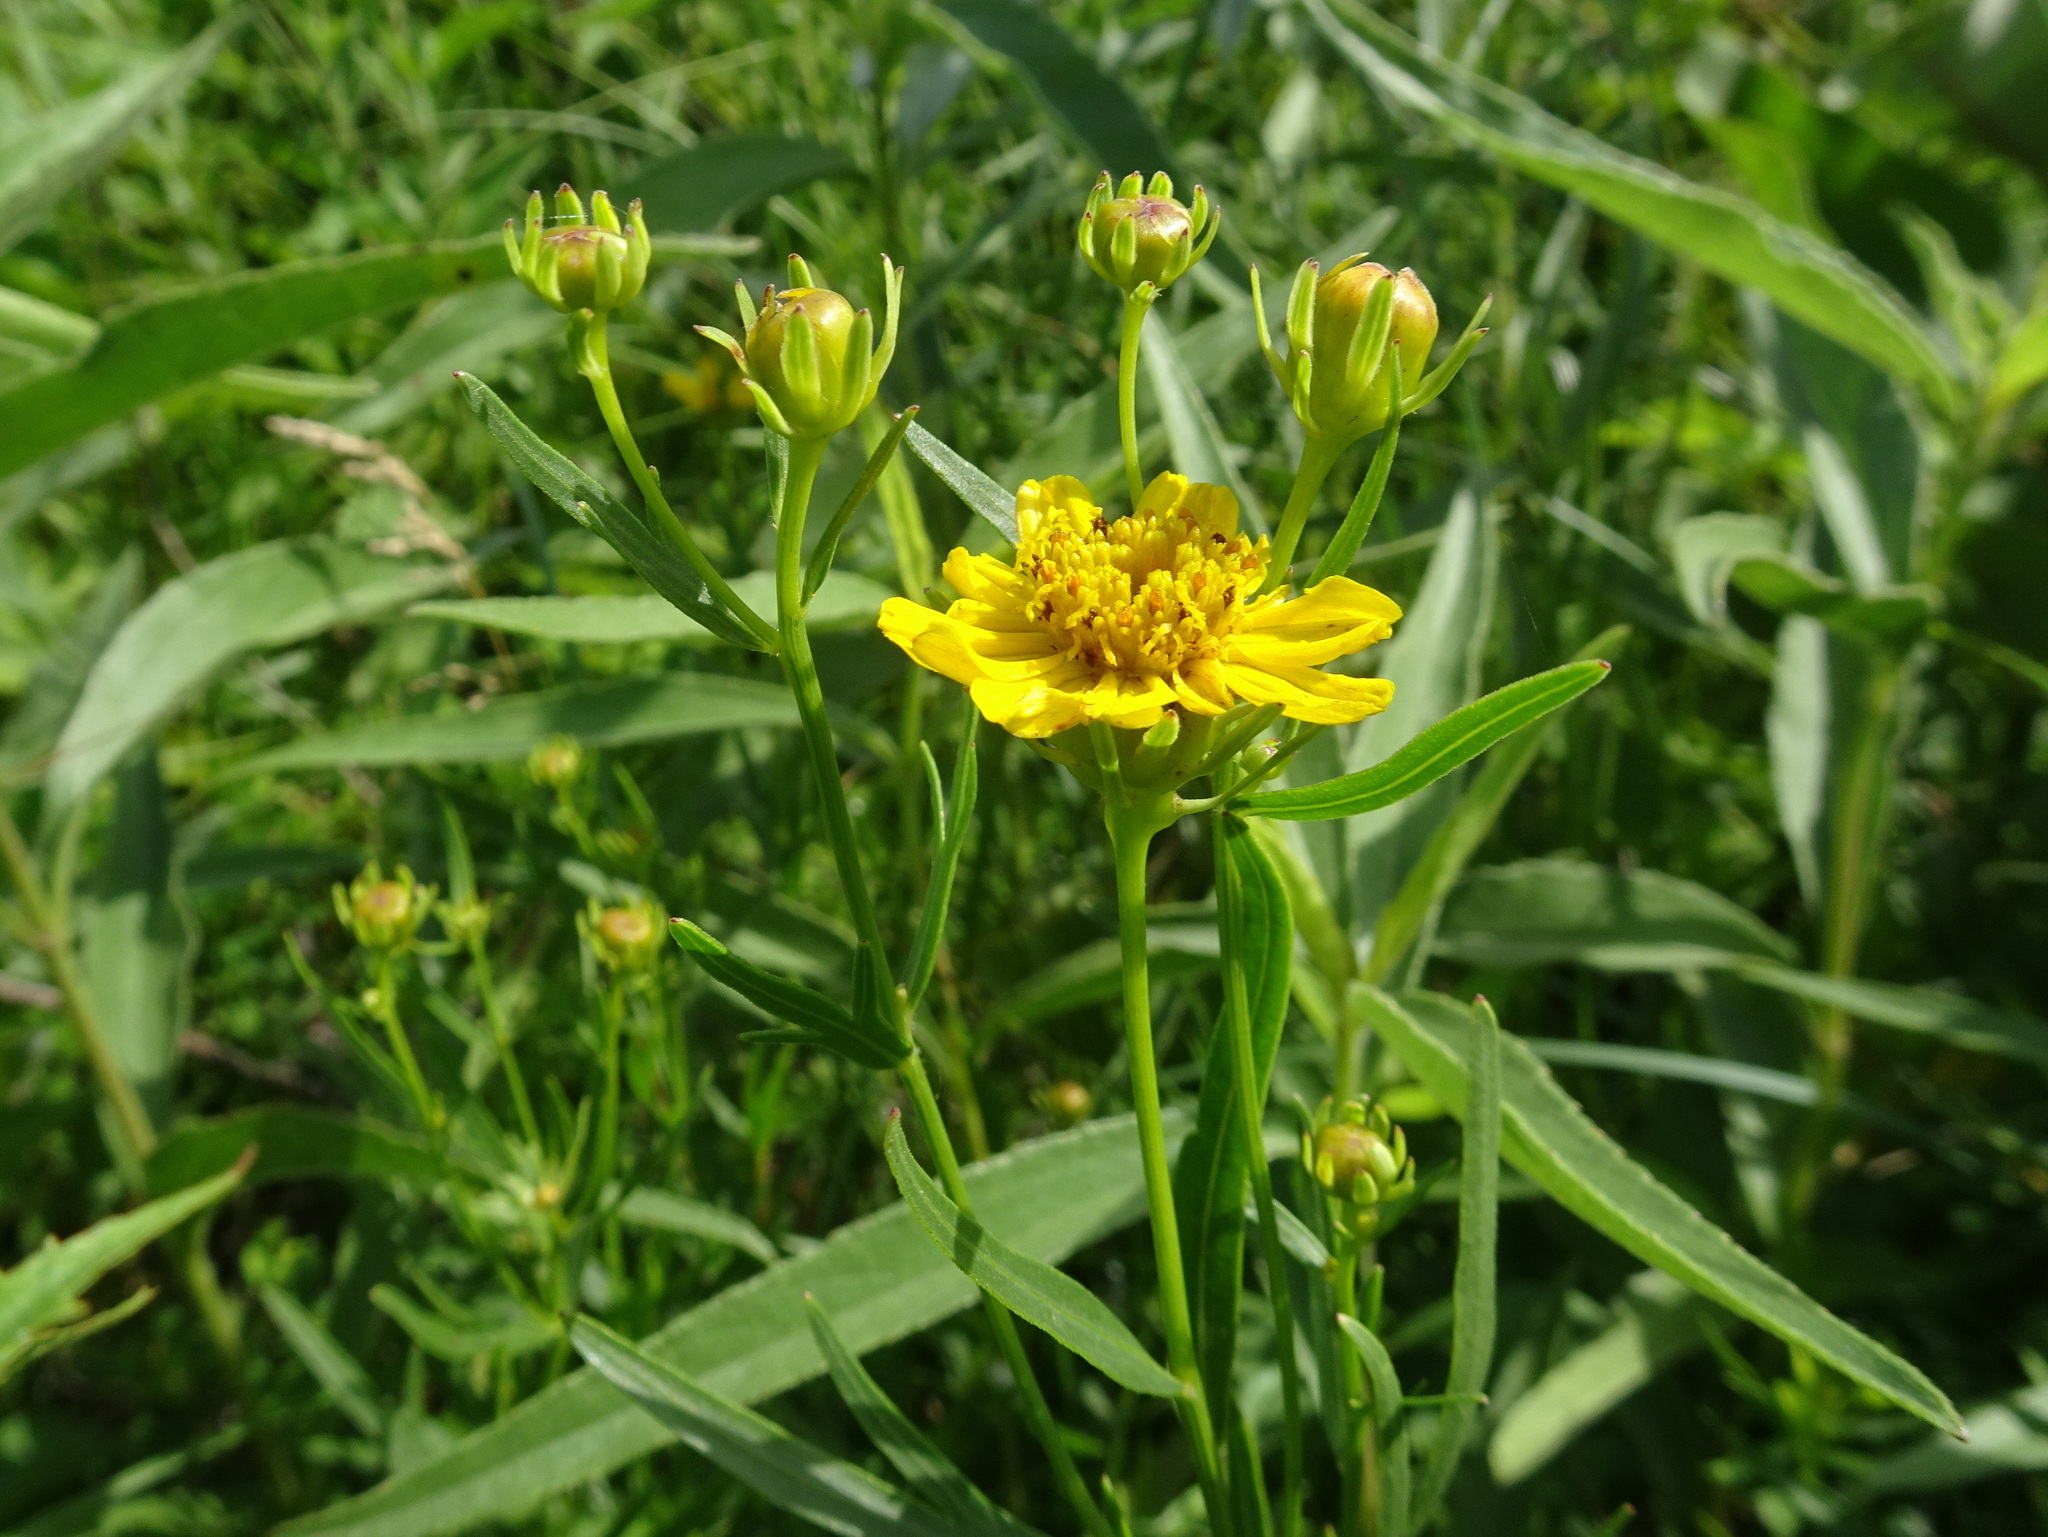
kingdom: Plantae
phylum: Tracheophyta
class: Magnoliopsida
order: Asterales
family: Asteraceae
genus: Coreopsis
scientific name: Coreopsis palmata
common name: Prairie coreopsis
